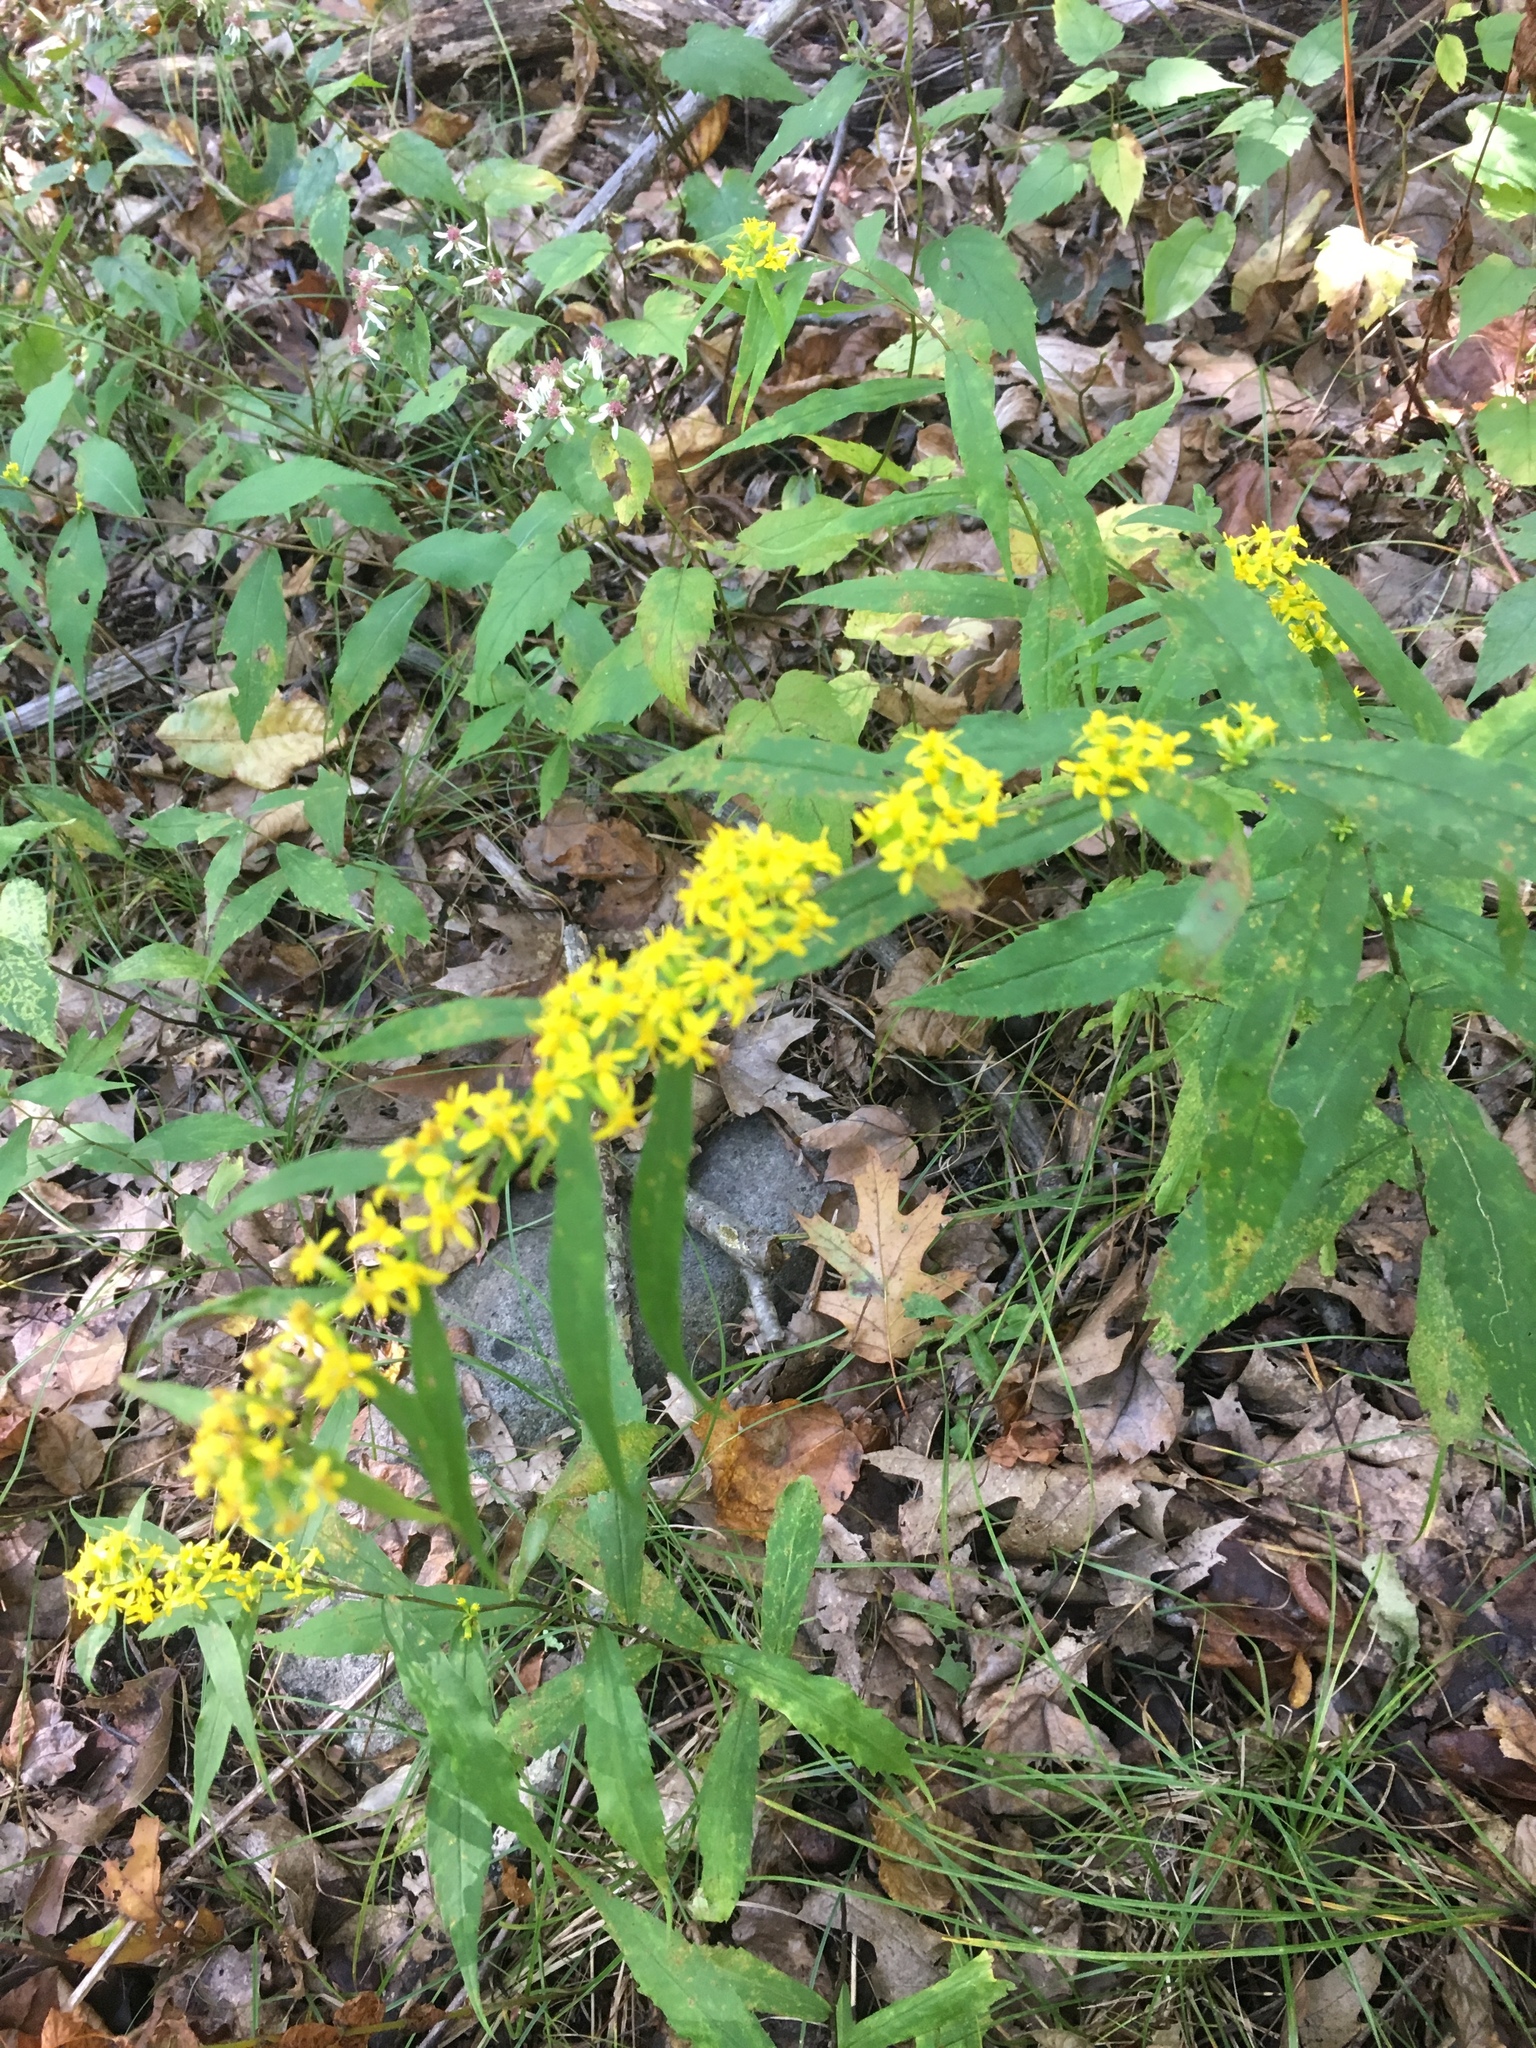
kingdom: Plantae
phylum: Tracheophyta
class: Magnoliopsida
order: Asterales
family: Asteraceae
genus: Solidago
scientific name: Solidago caesia
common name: Woodland goldenrod
